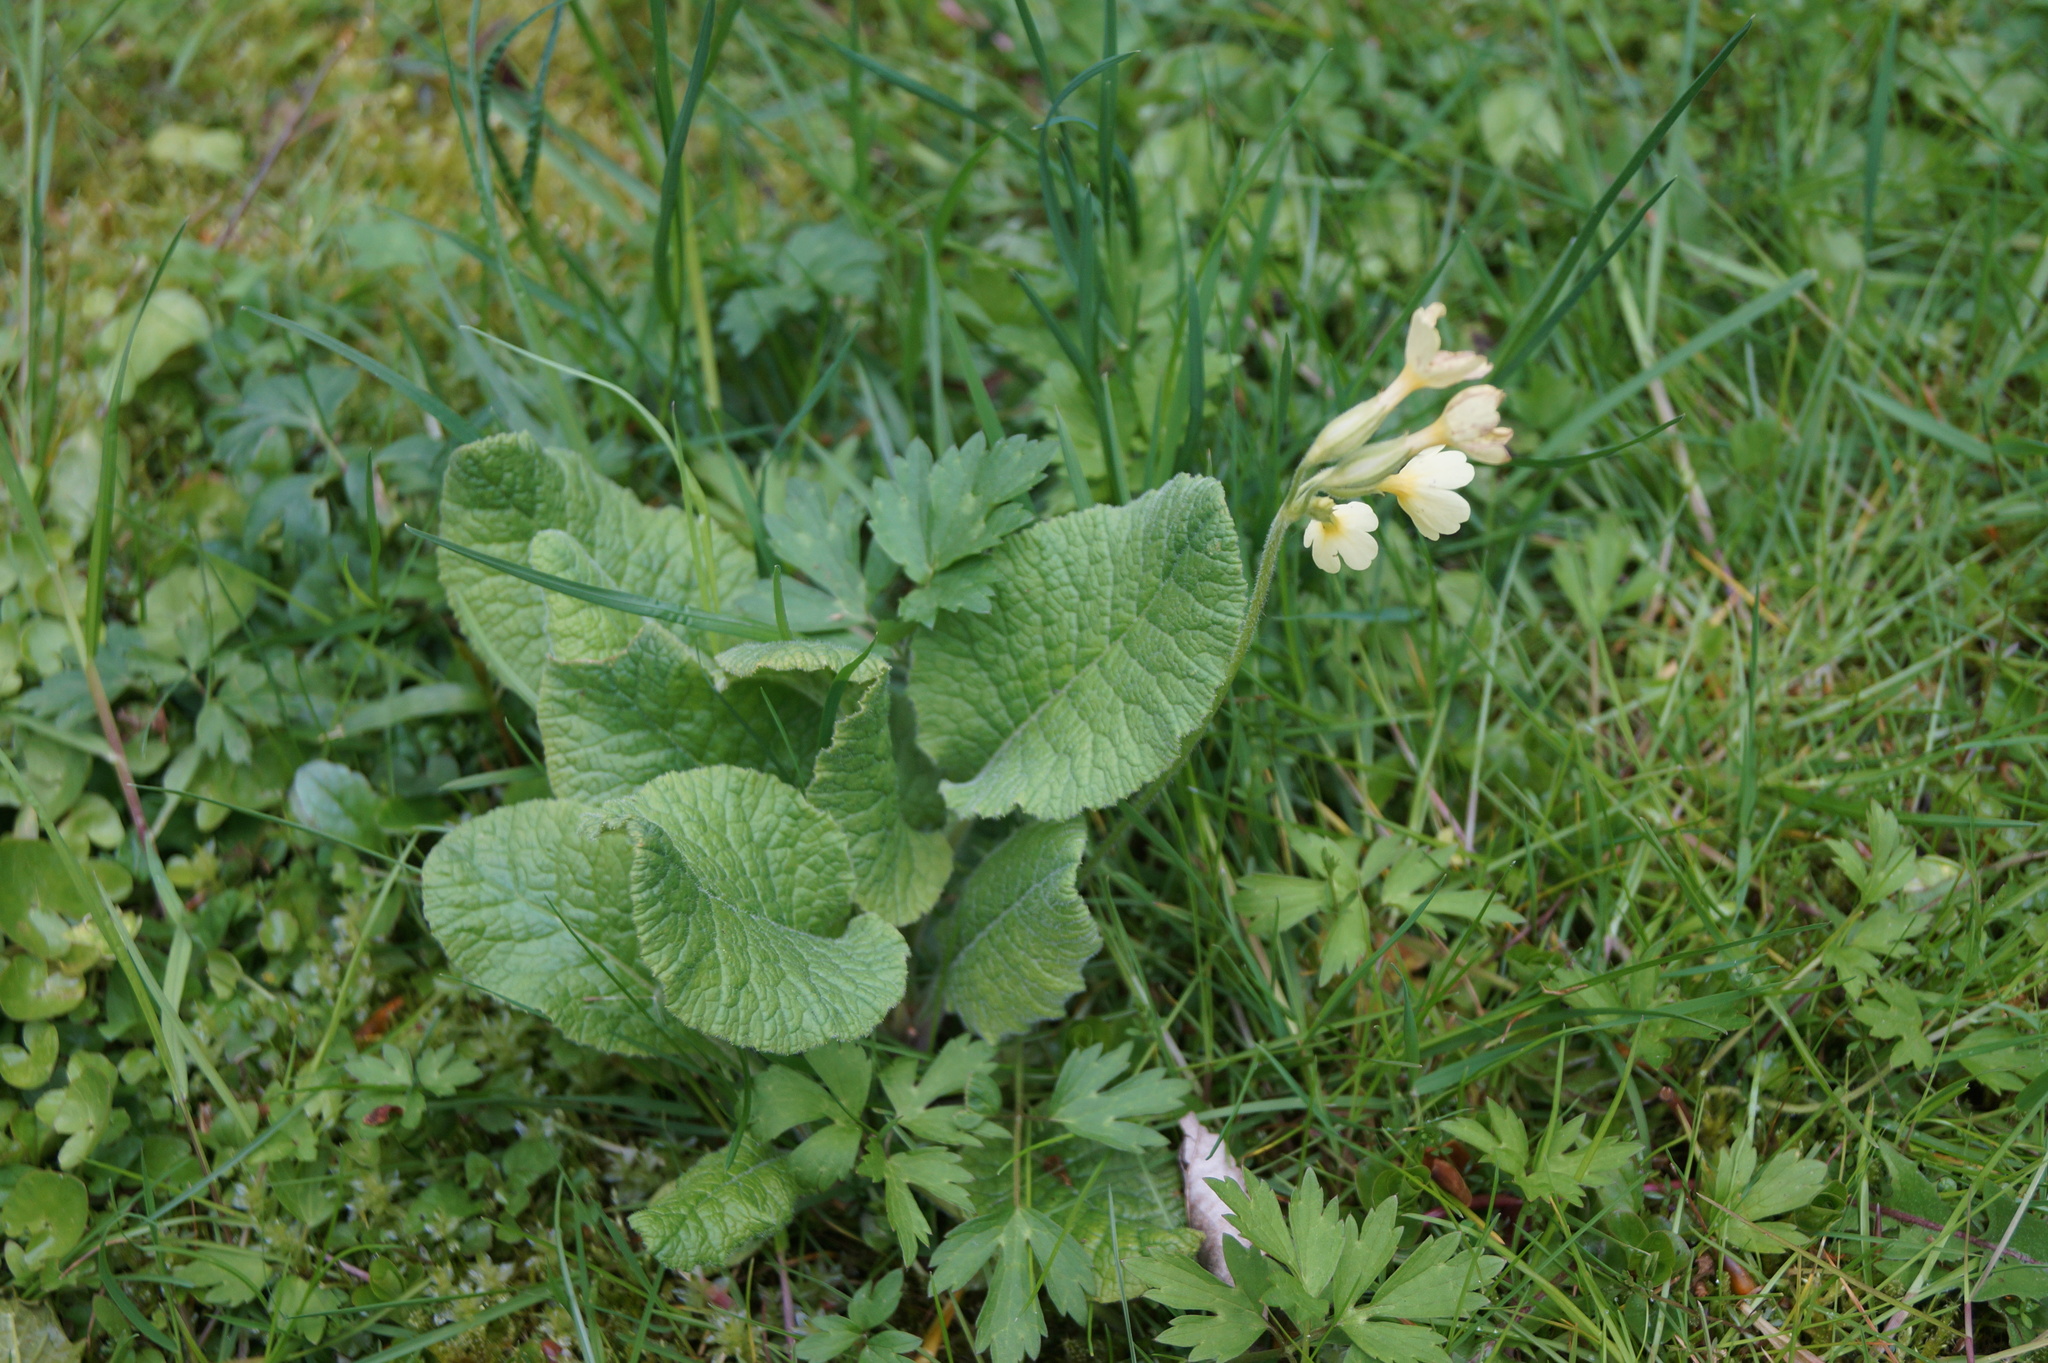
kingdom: Plantae
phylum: Tracheophyta
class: Magnoliopsida
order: Ericales
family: Primulaceae
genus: Primula
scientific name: Primula elatior
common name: Oxlip
